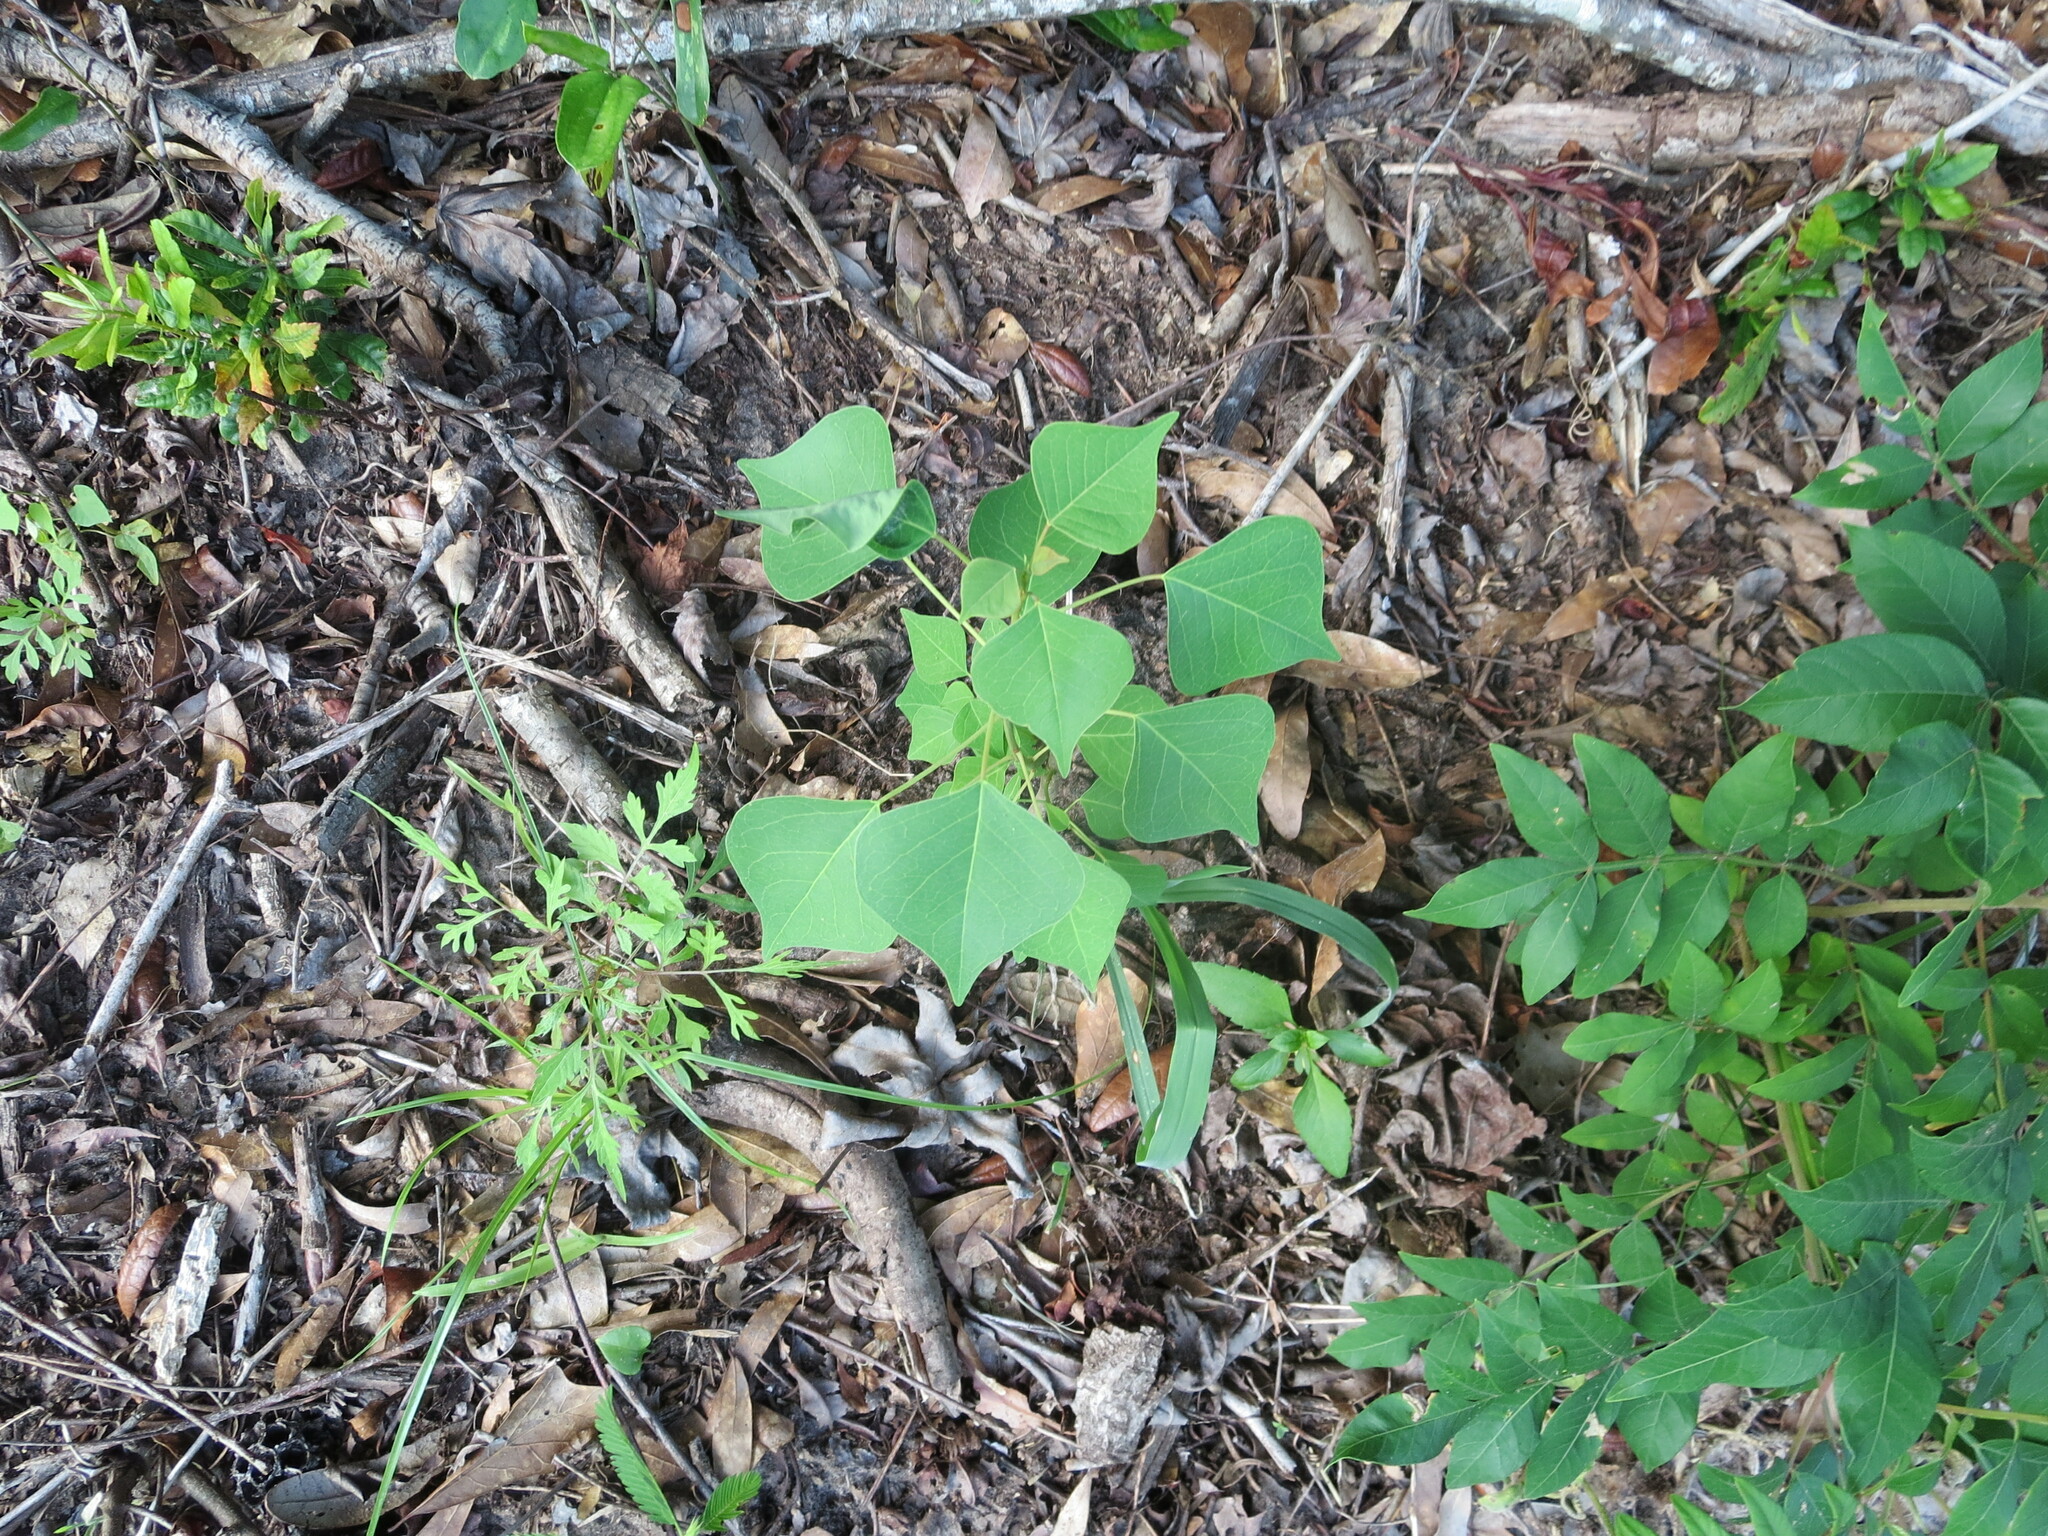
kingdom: Plantae
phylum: Tracheophyta
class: Magnoliopsida
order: Malpighiales
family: Euphorbiaceae
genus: Triadica
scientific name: Triadica sebifera
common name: Chinese tallow
